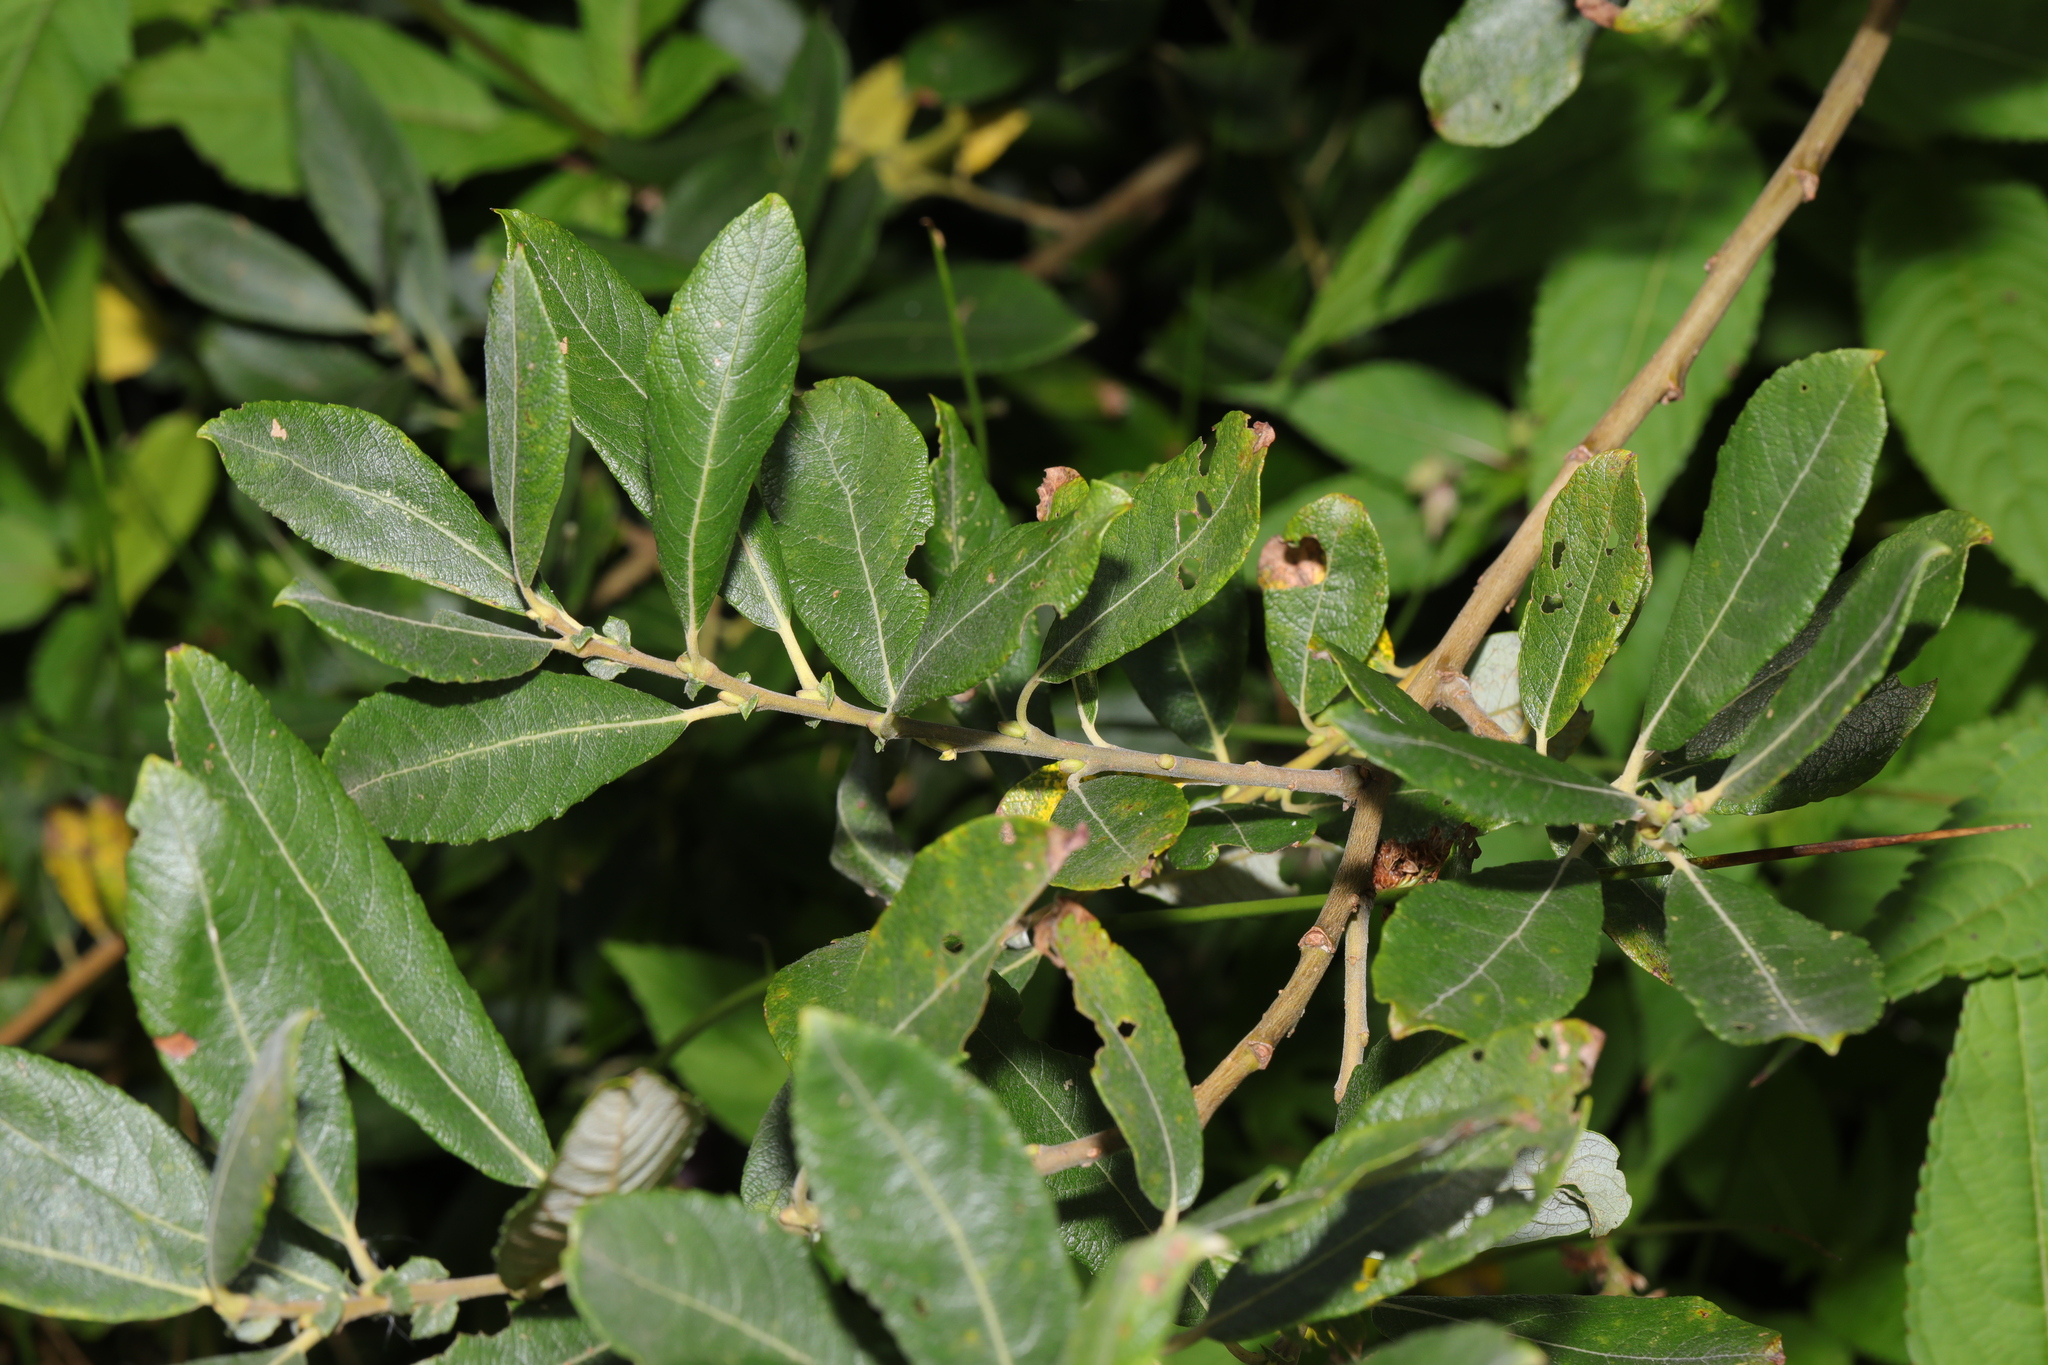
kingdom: Plantae
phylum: Tracheophyta
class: Magnoliopsida
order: Malpighiales
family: Salicaceae
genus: Salix
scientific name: Salix cinerea
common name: Common sallow
